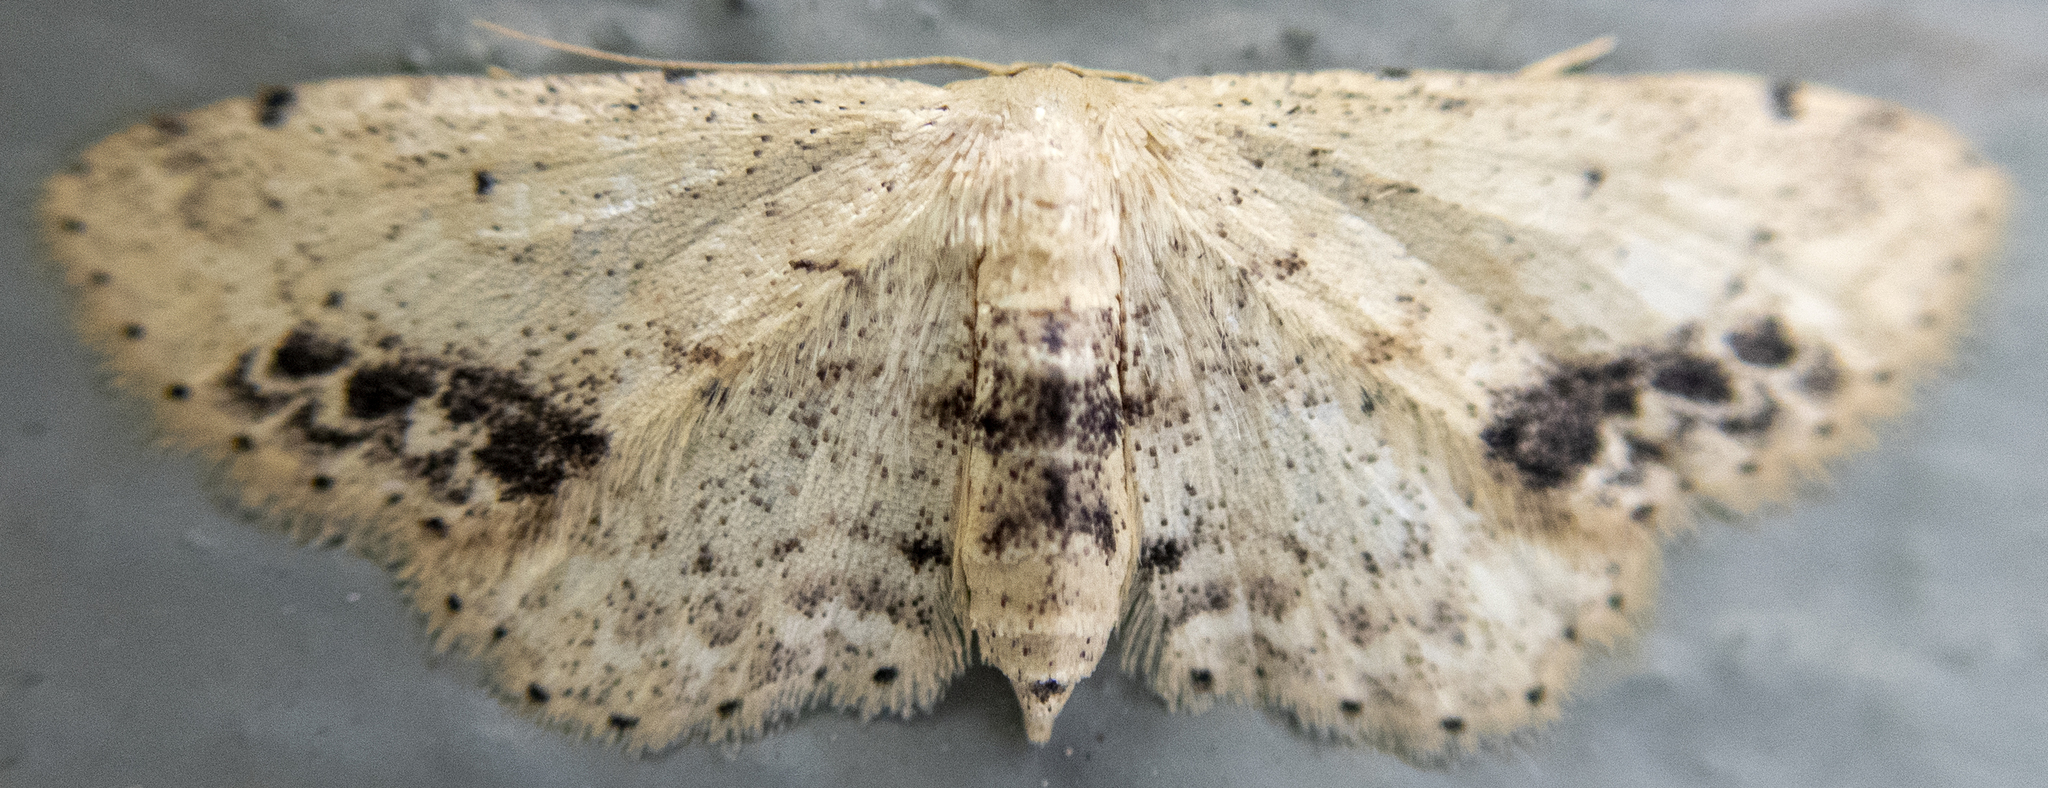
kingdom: Animalia
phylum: Arthropoda
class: Insecta
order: Lepidoptera
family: Geometridae
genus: Idaea
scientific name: Idaea dimidiata
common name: Single-dotted wave
